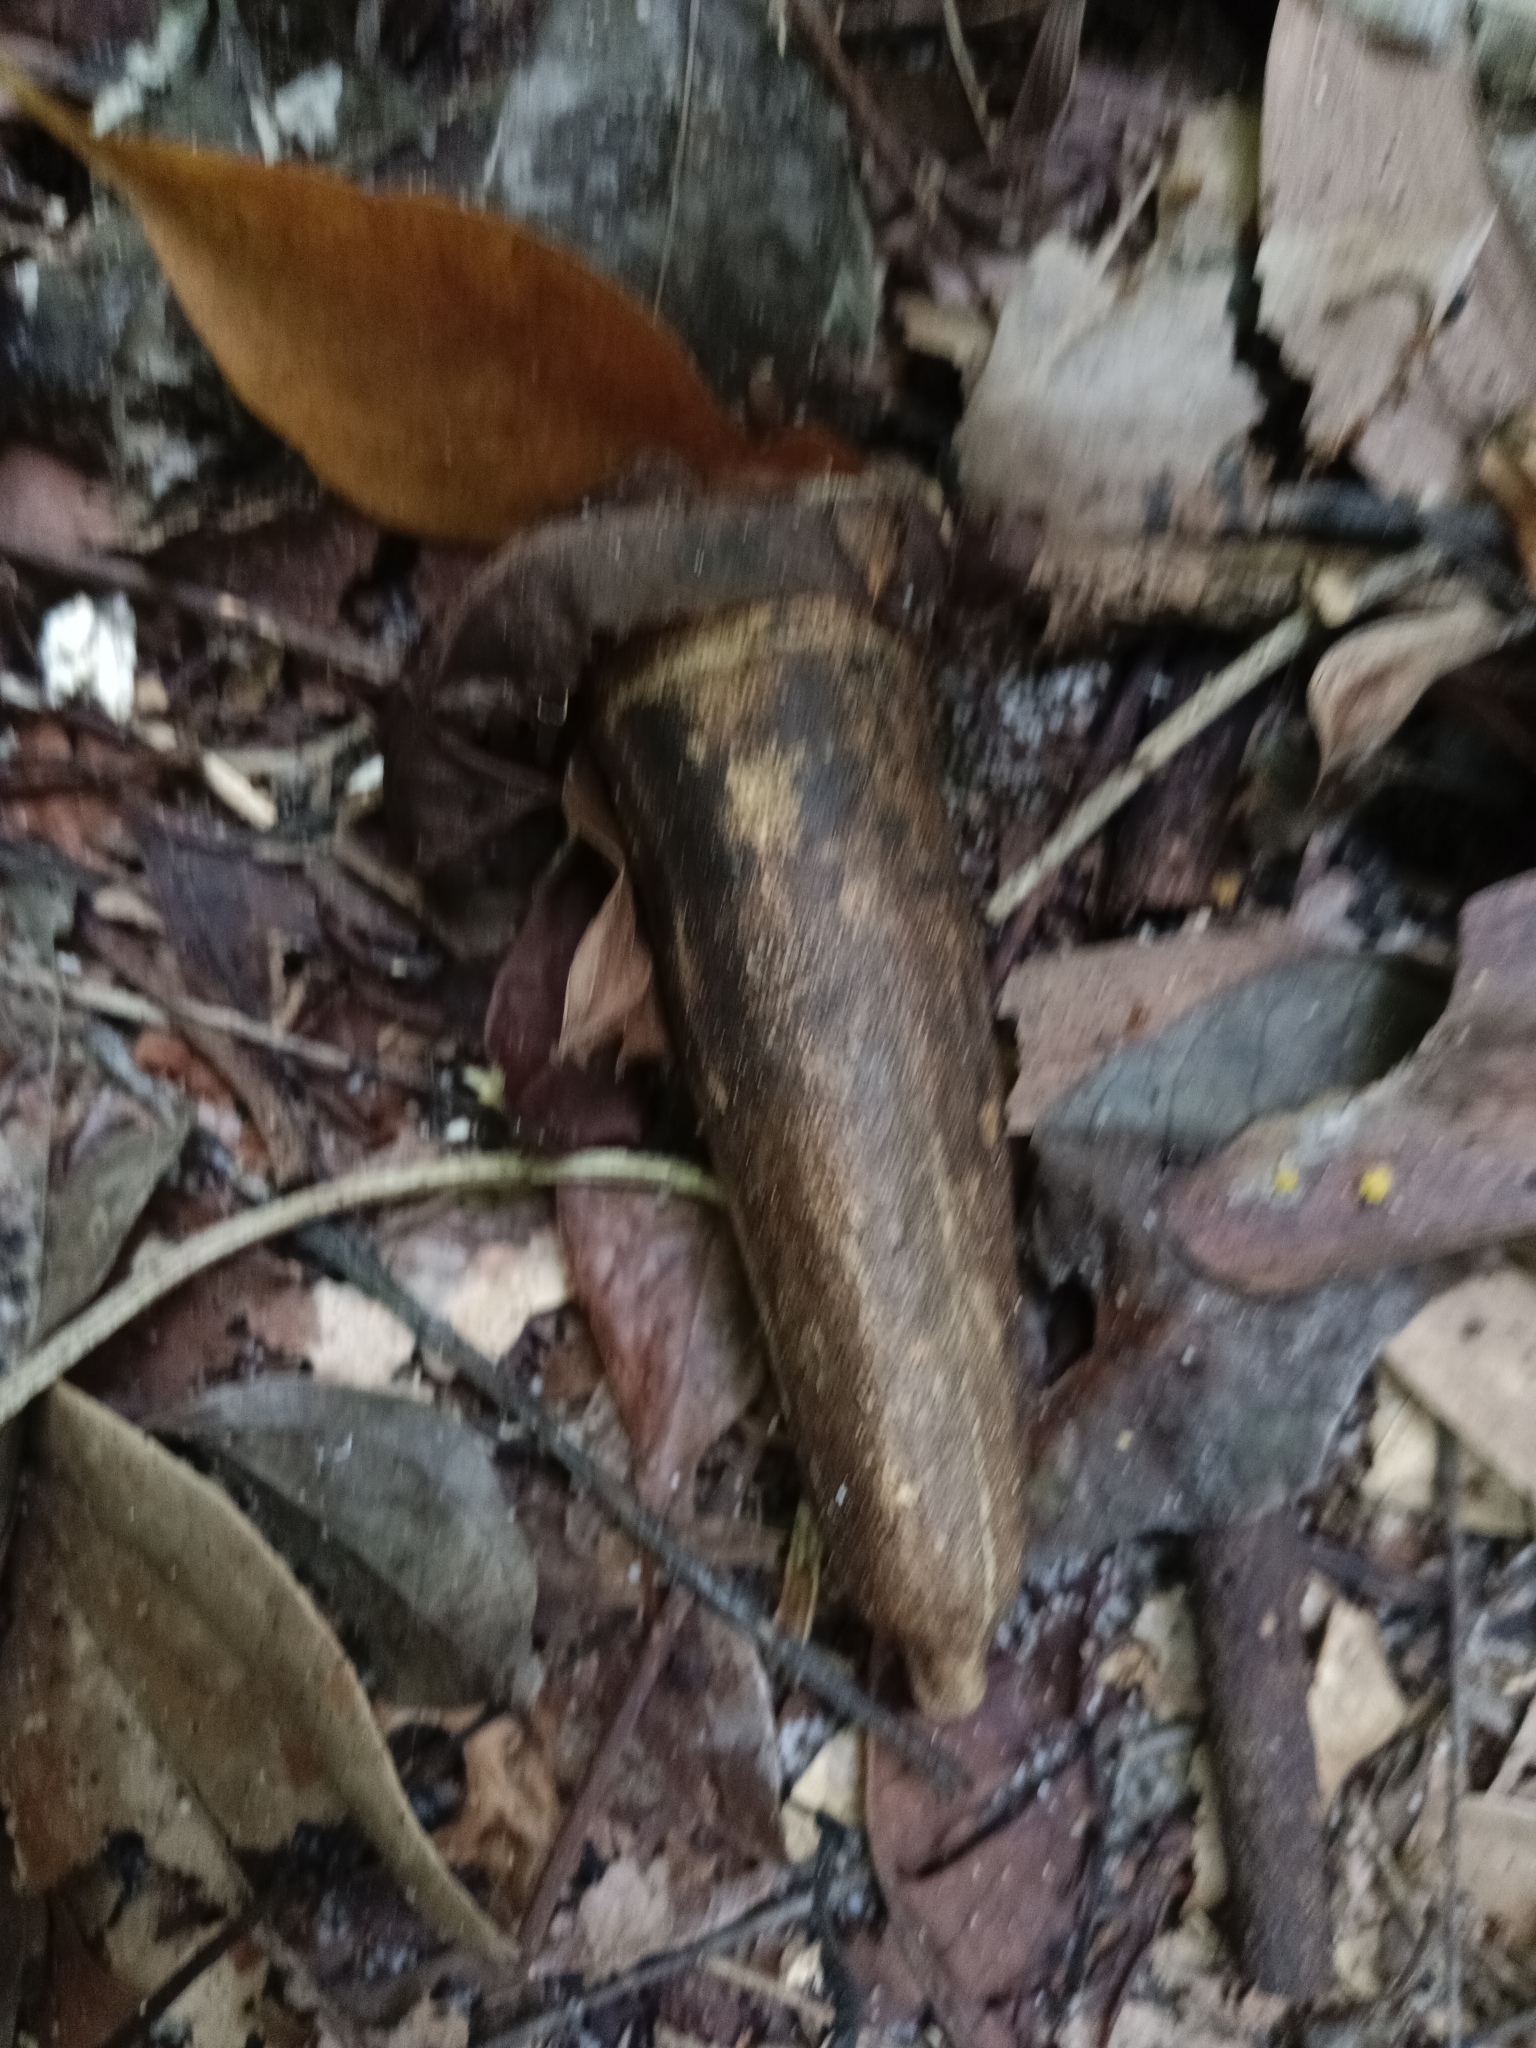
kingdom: Plantae
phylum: Tracheophyta
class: Magnoliopsida
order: Cucurbitales
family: Cucurbitaceae
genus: Zanonia
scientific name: Zanonia indica
